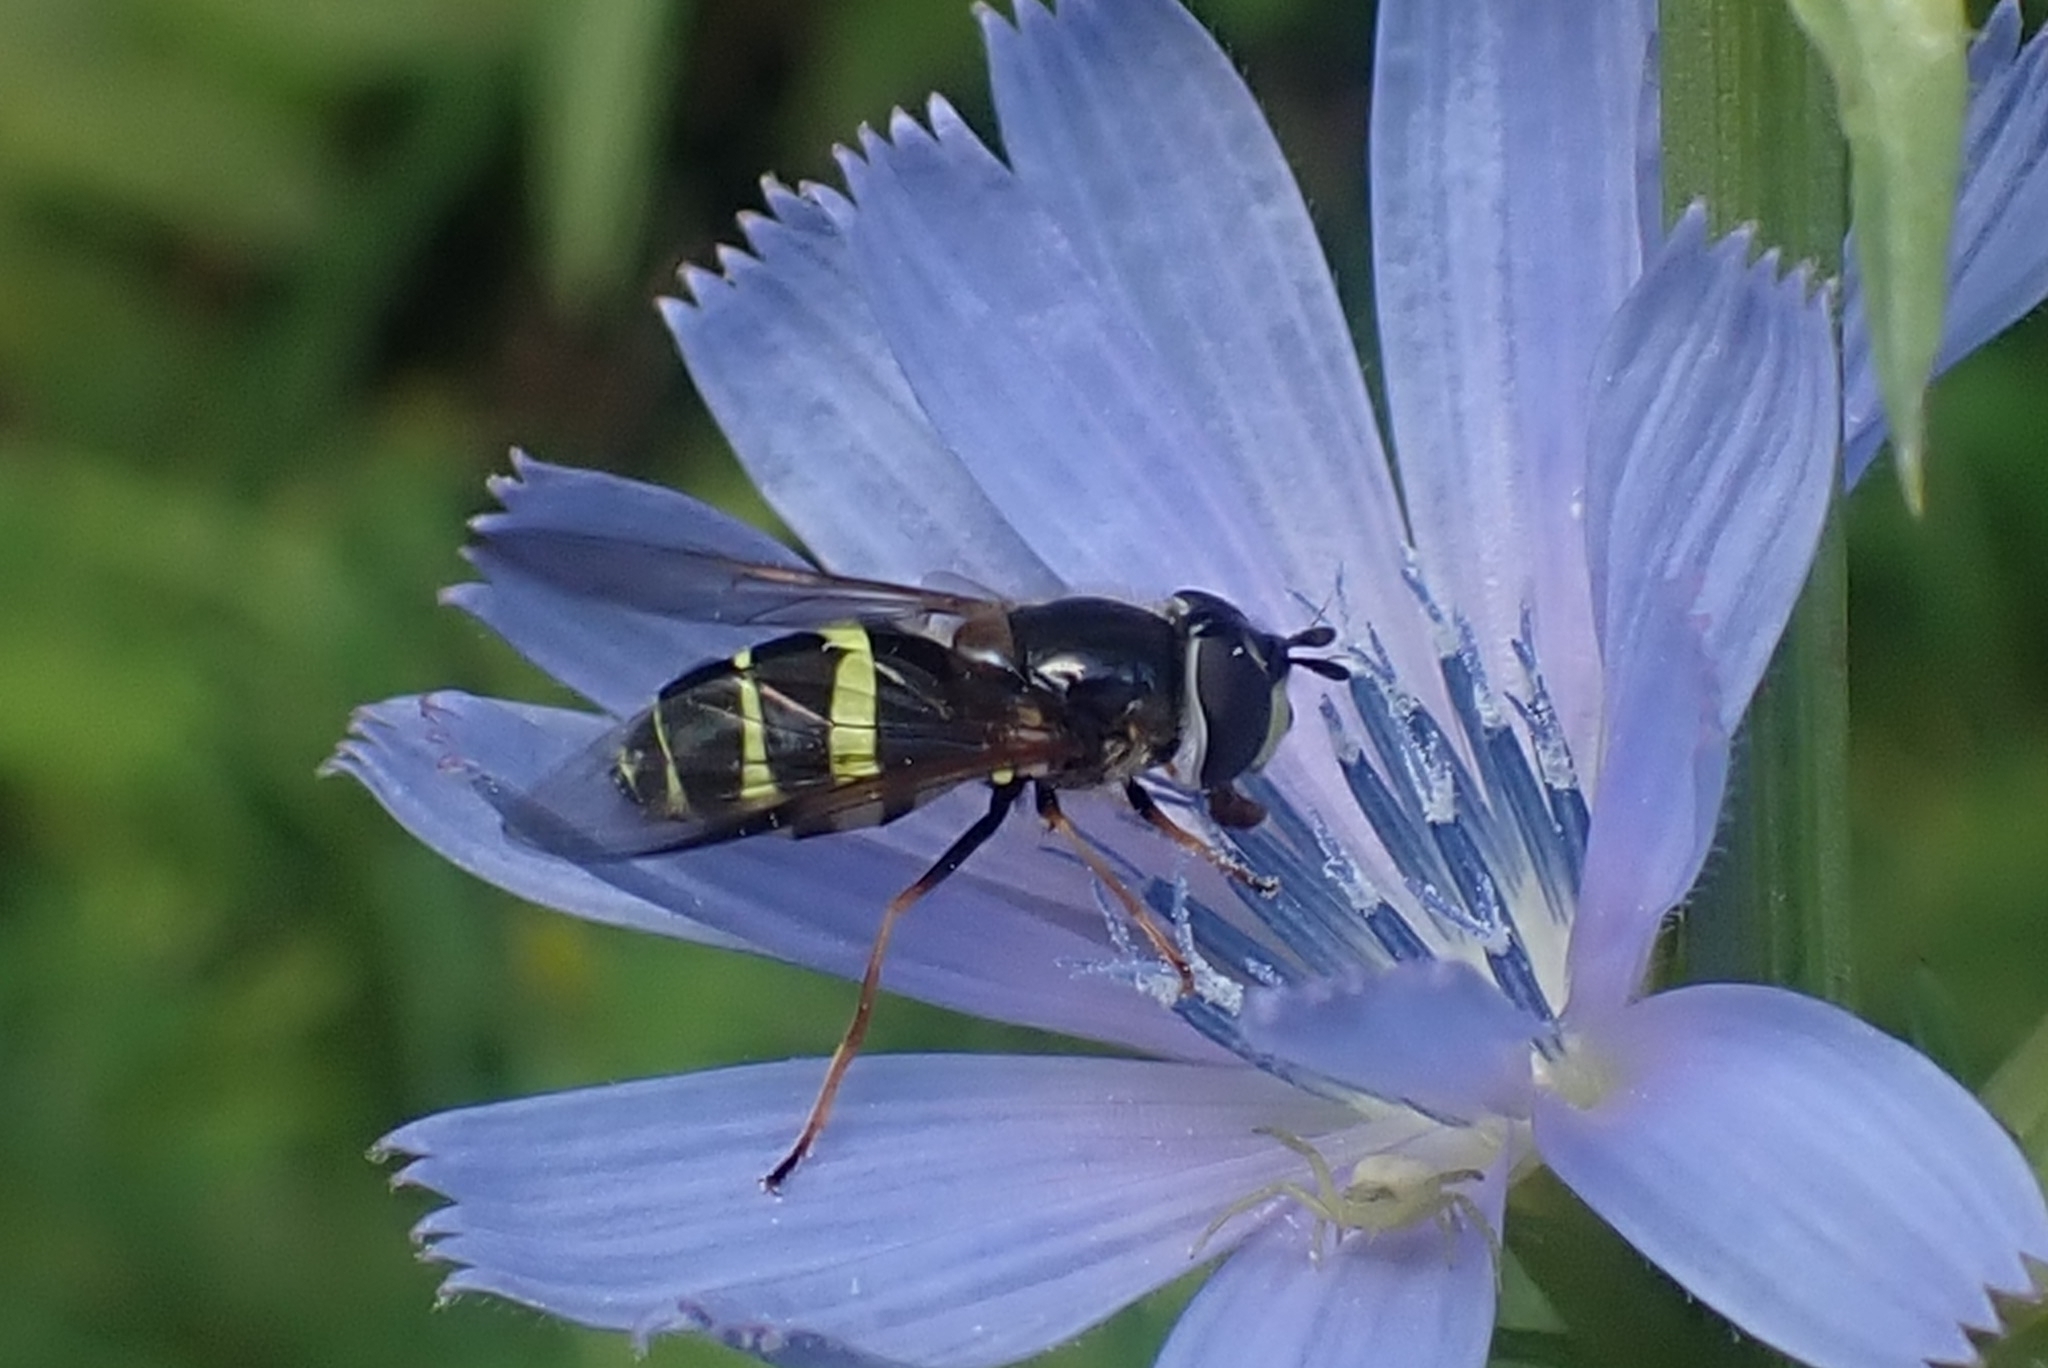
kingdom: Animalia
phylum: Arthropoda
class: Insecta
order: Diptera
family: Syrphidae
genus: Dasysyrphus
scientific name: Dasysyrphus tricinctus
